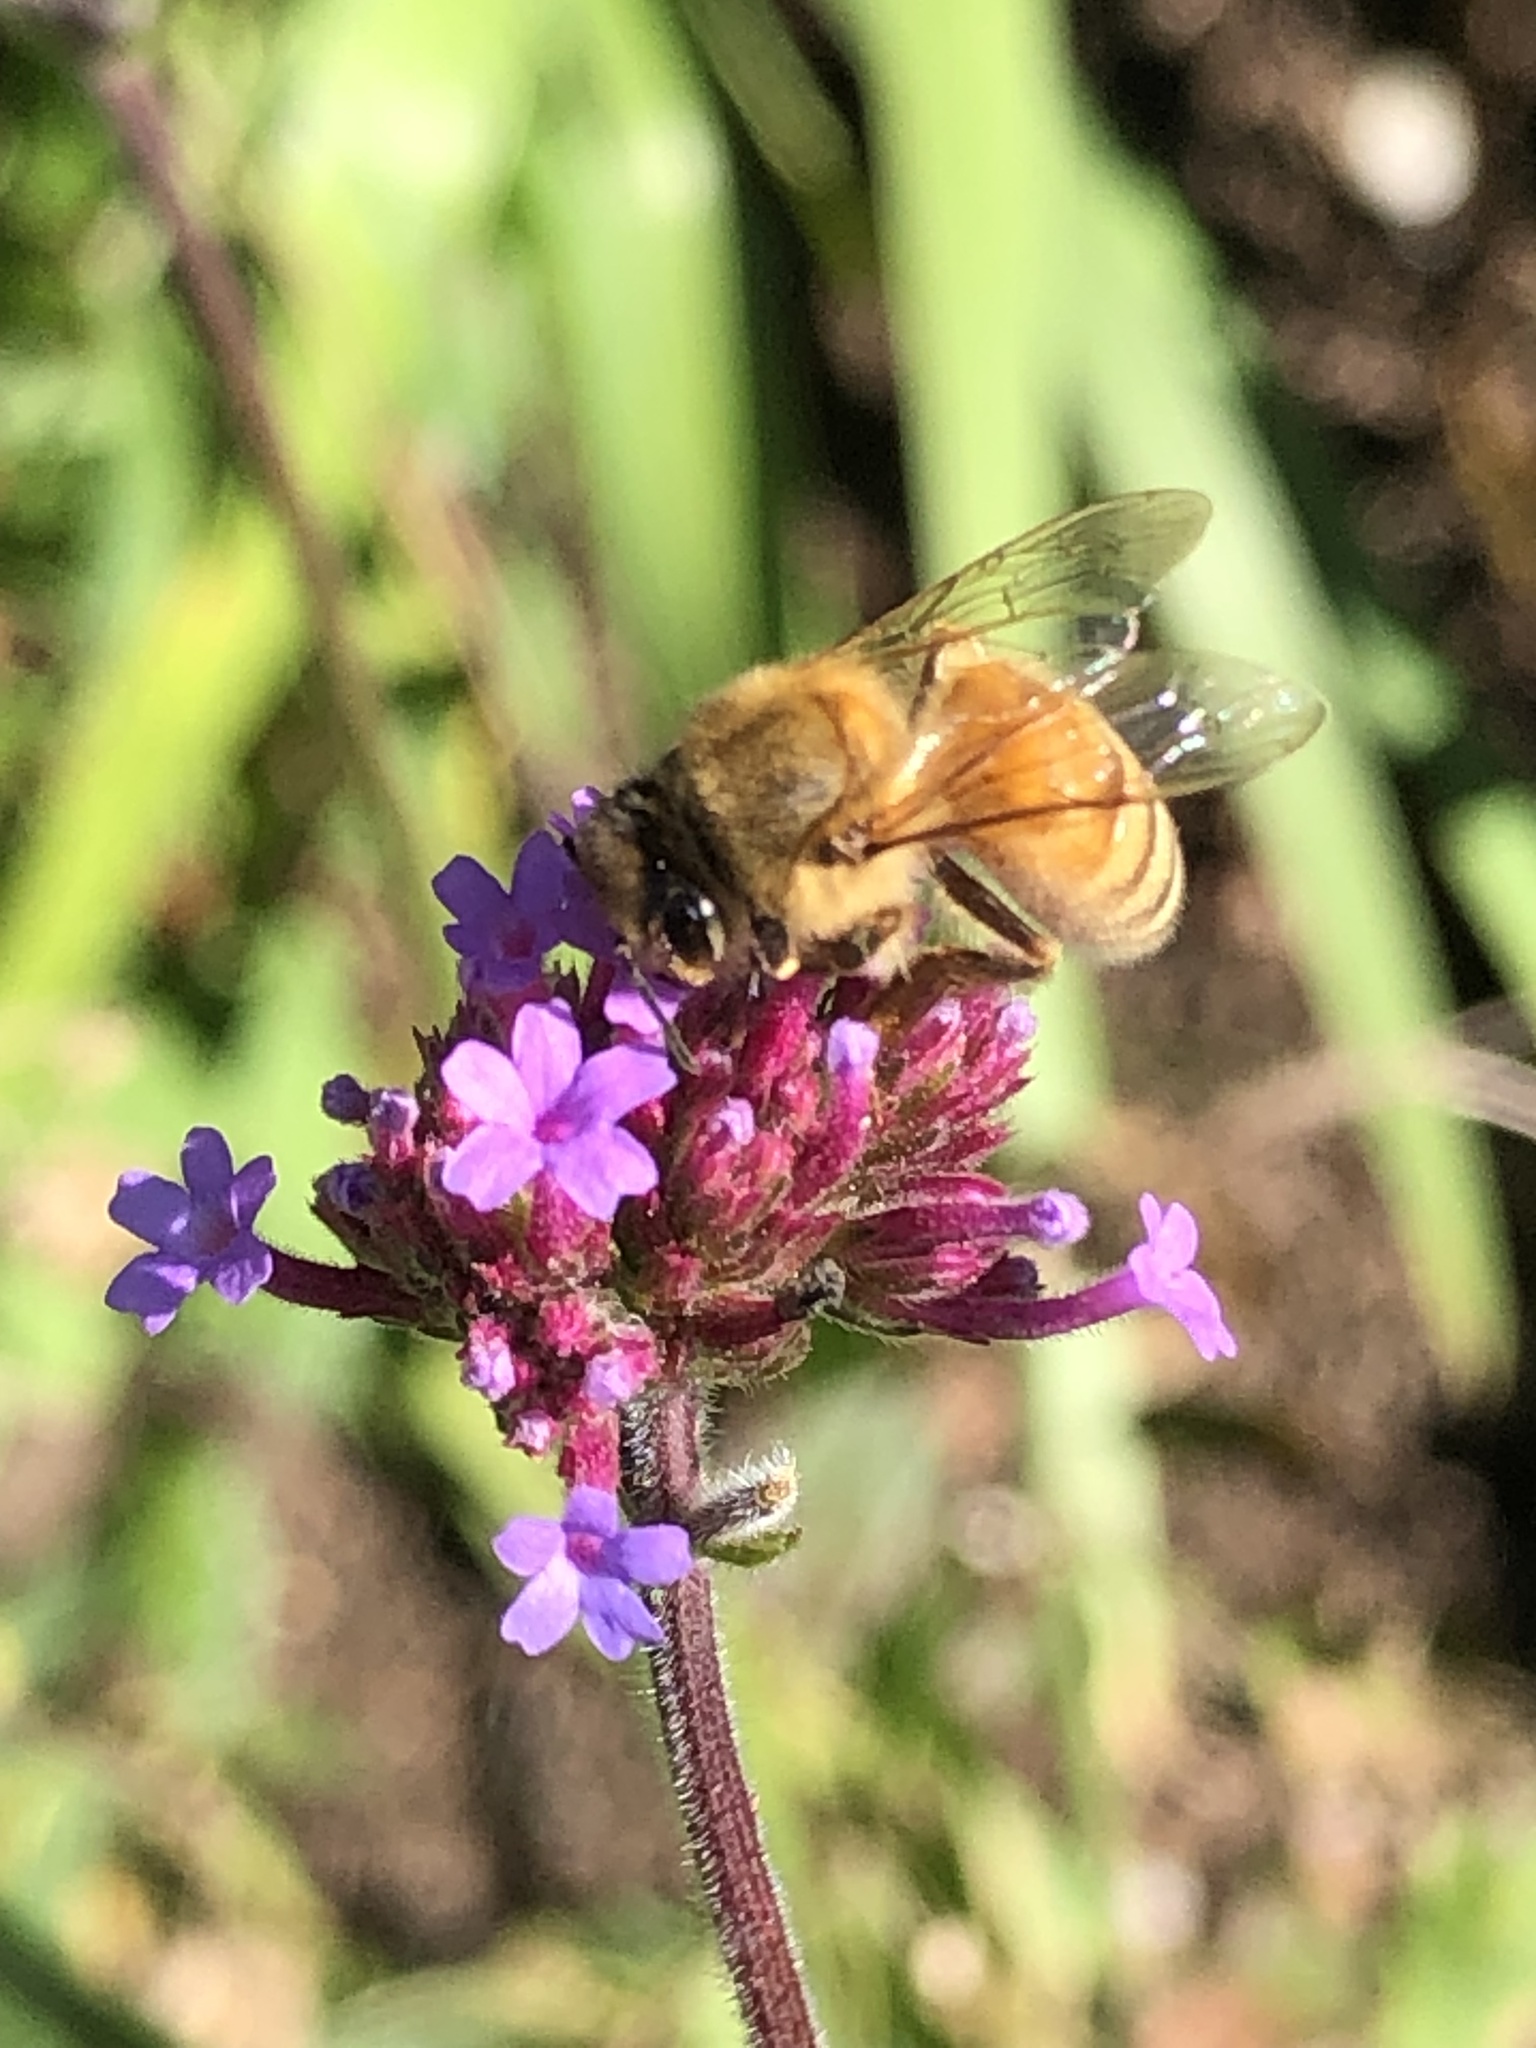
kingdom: Plantae
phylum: Tracheophyta
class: Magnoliopsida
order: Lamiales
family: Verbenaceae
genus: Verbena
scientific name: Verbena bonariensis
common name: Purpletop vervain
